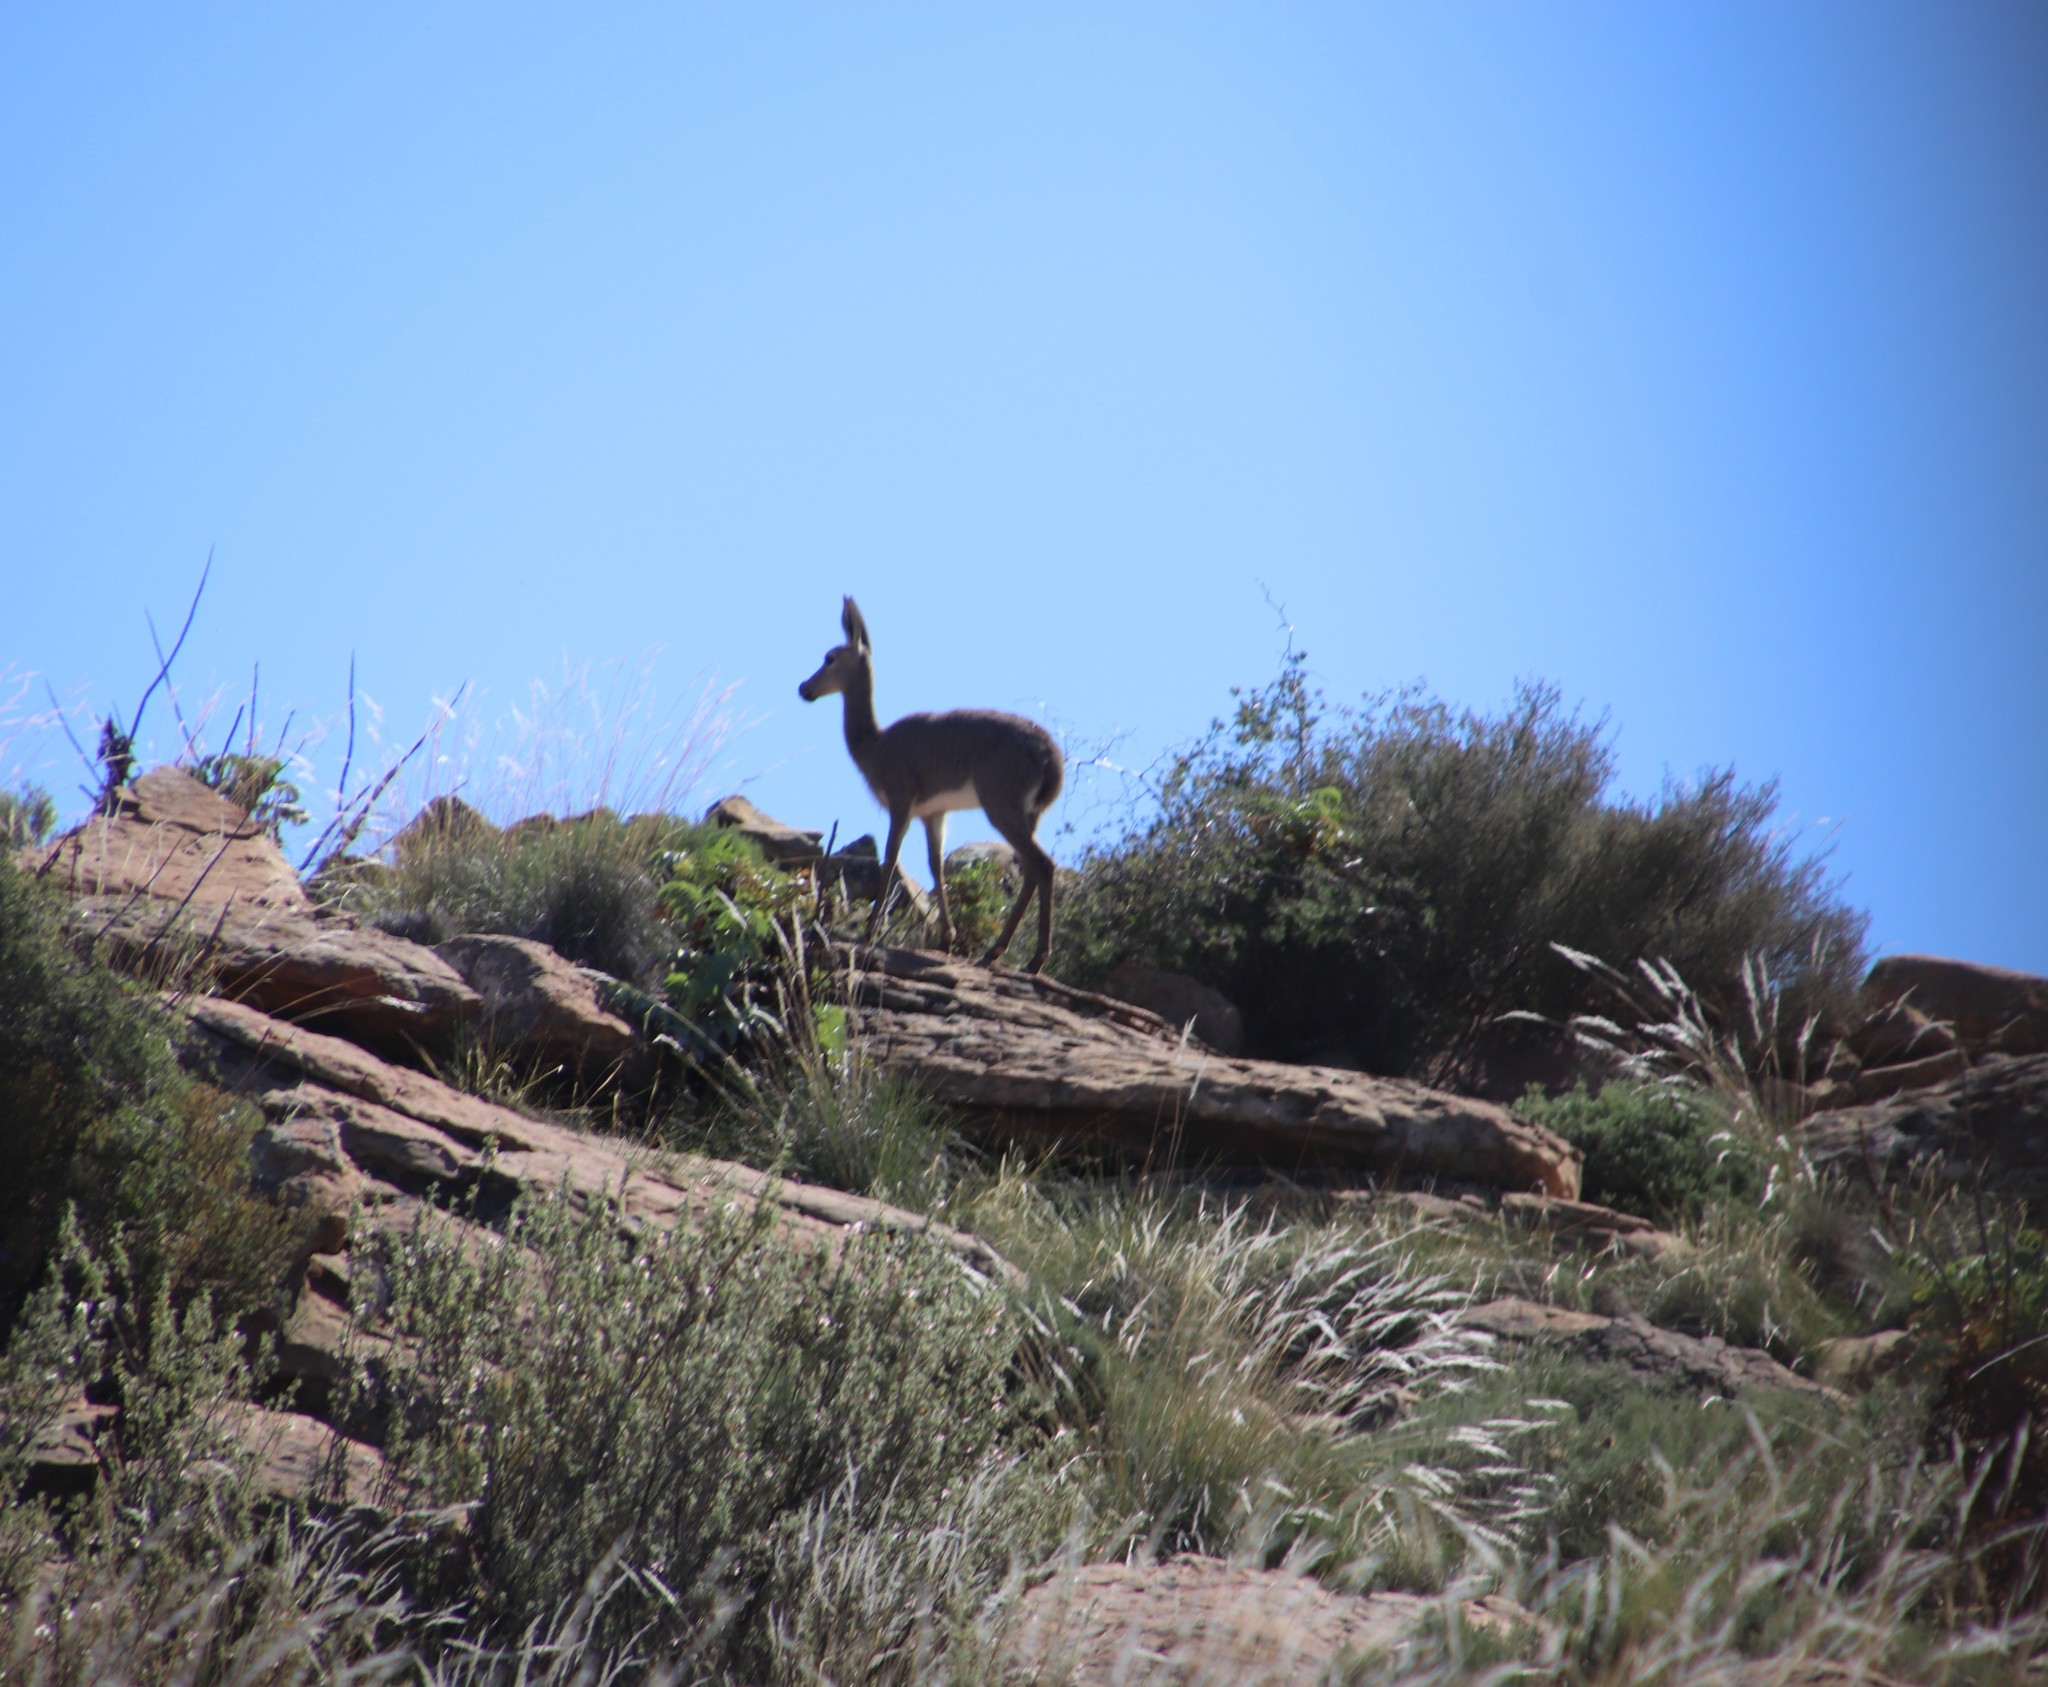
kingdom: Animalia
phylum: Chordata
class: Mammalia
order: Artiodactyla
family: Bovidae
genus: Pelea
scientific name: Pelea capreolus
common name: Common rhebok
